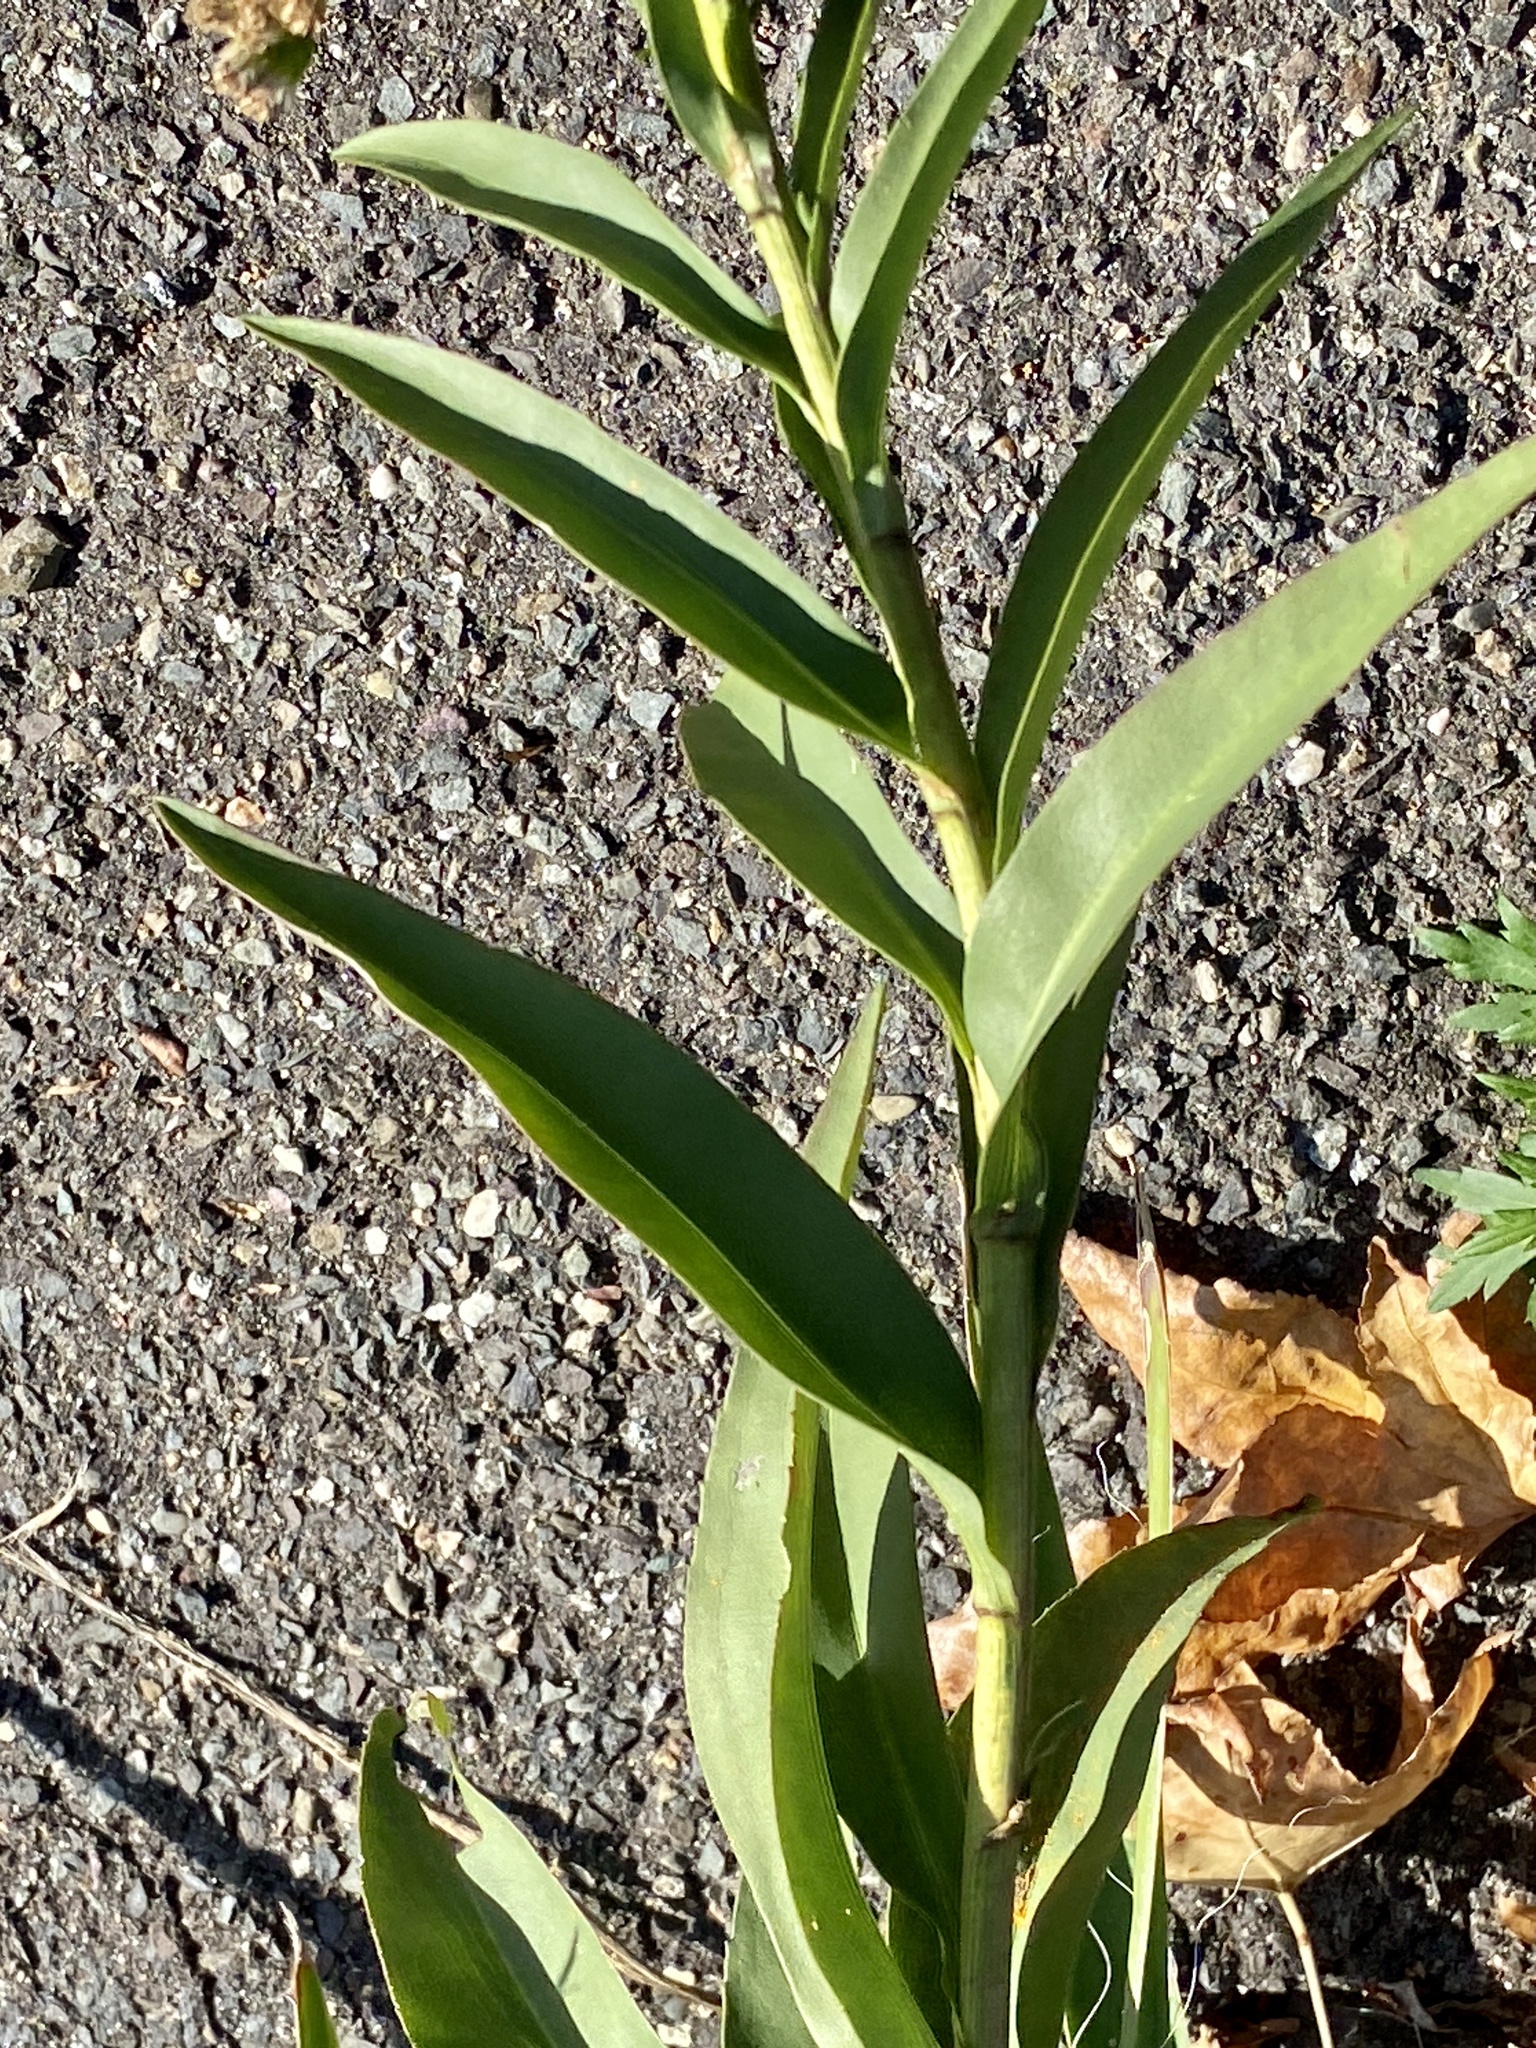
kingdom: Plantae
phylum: Tracheophyta
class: Magnoliopsida
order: Asterales
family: Asteraceae
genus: Solidago
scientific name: Solidago sempervirens
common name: Salt-marsh goldenrod
